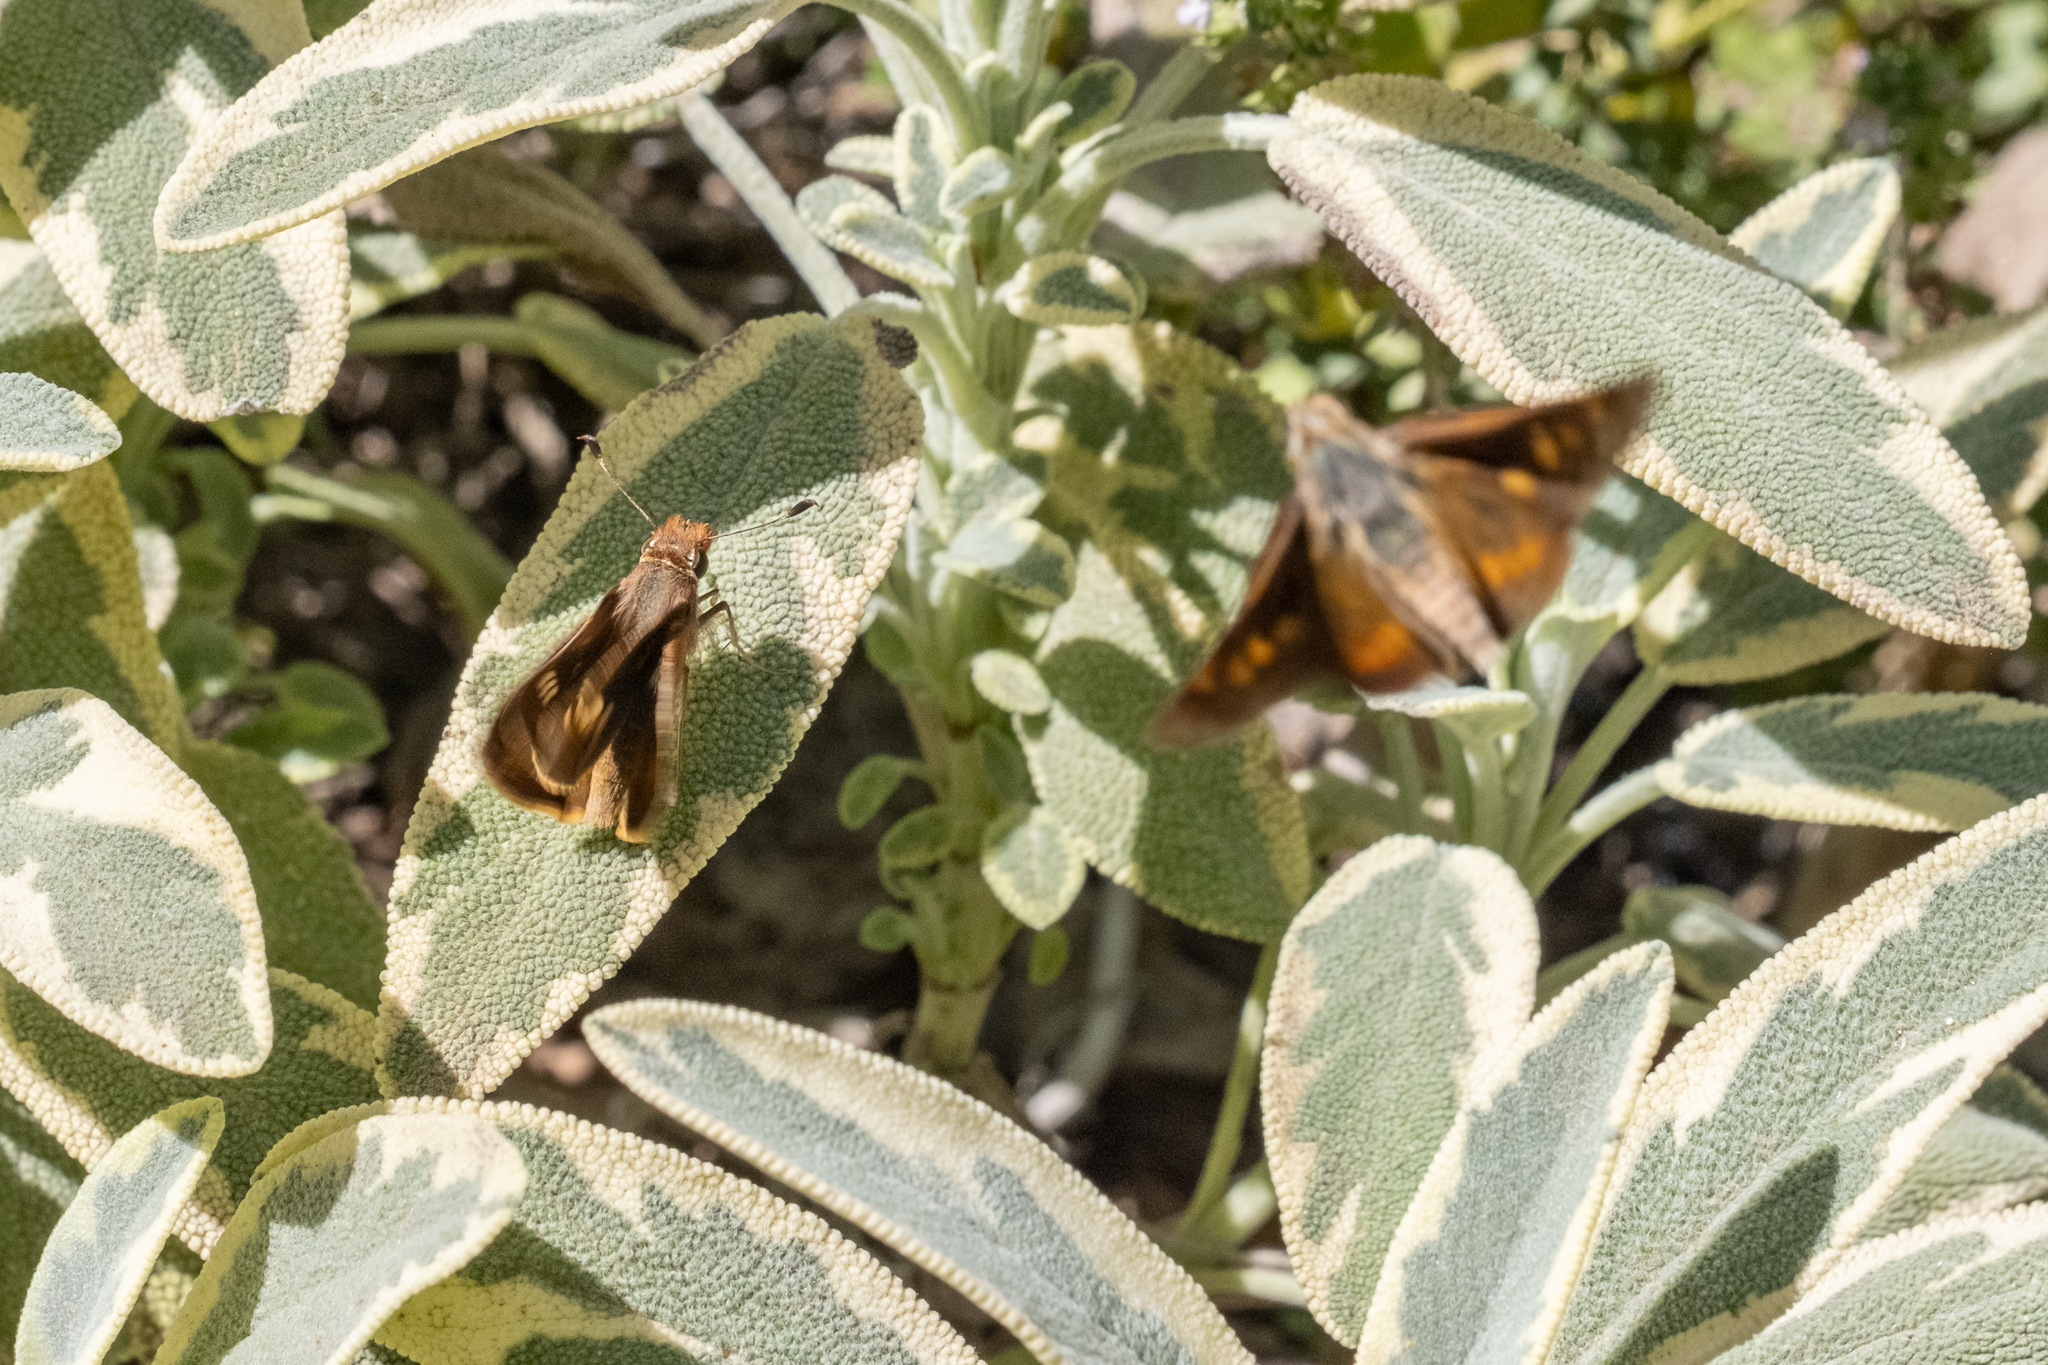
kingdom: Animalia
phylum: Arthropoda
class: Insecta
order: Lepidoptera
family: Hesperiidae
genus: Lon
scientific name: Lon melane
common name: Umber skipper
